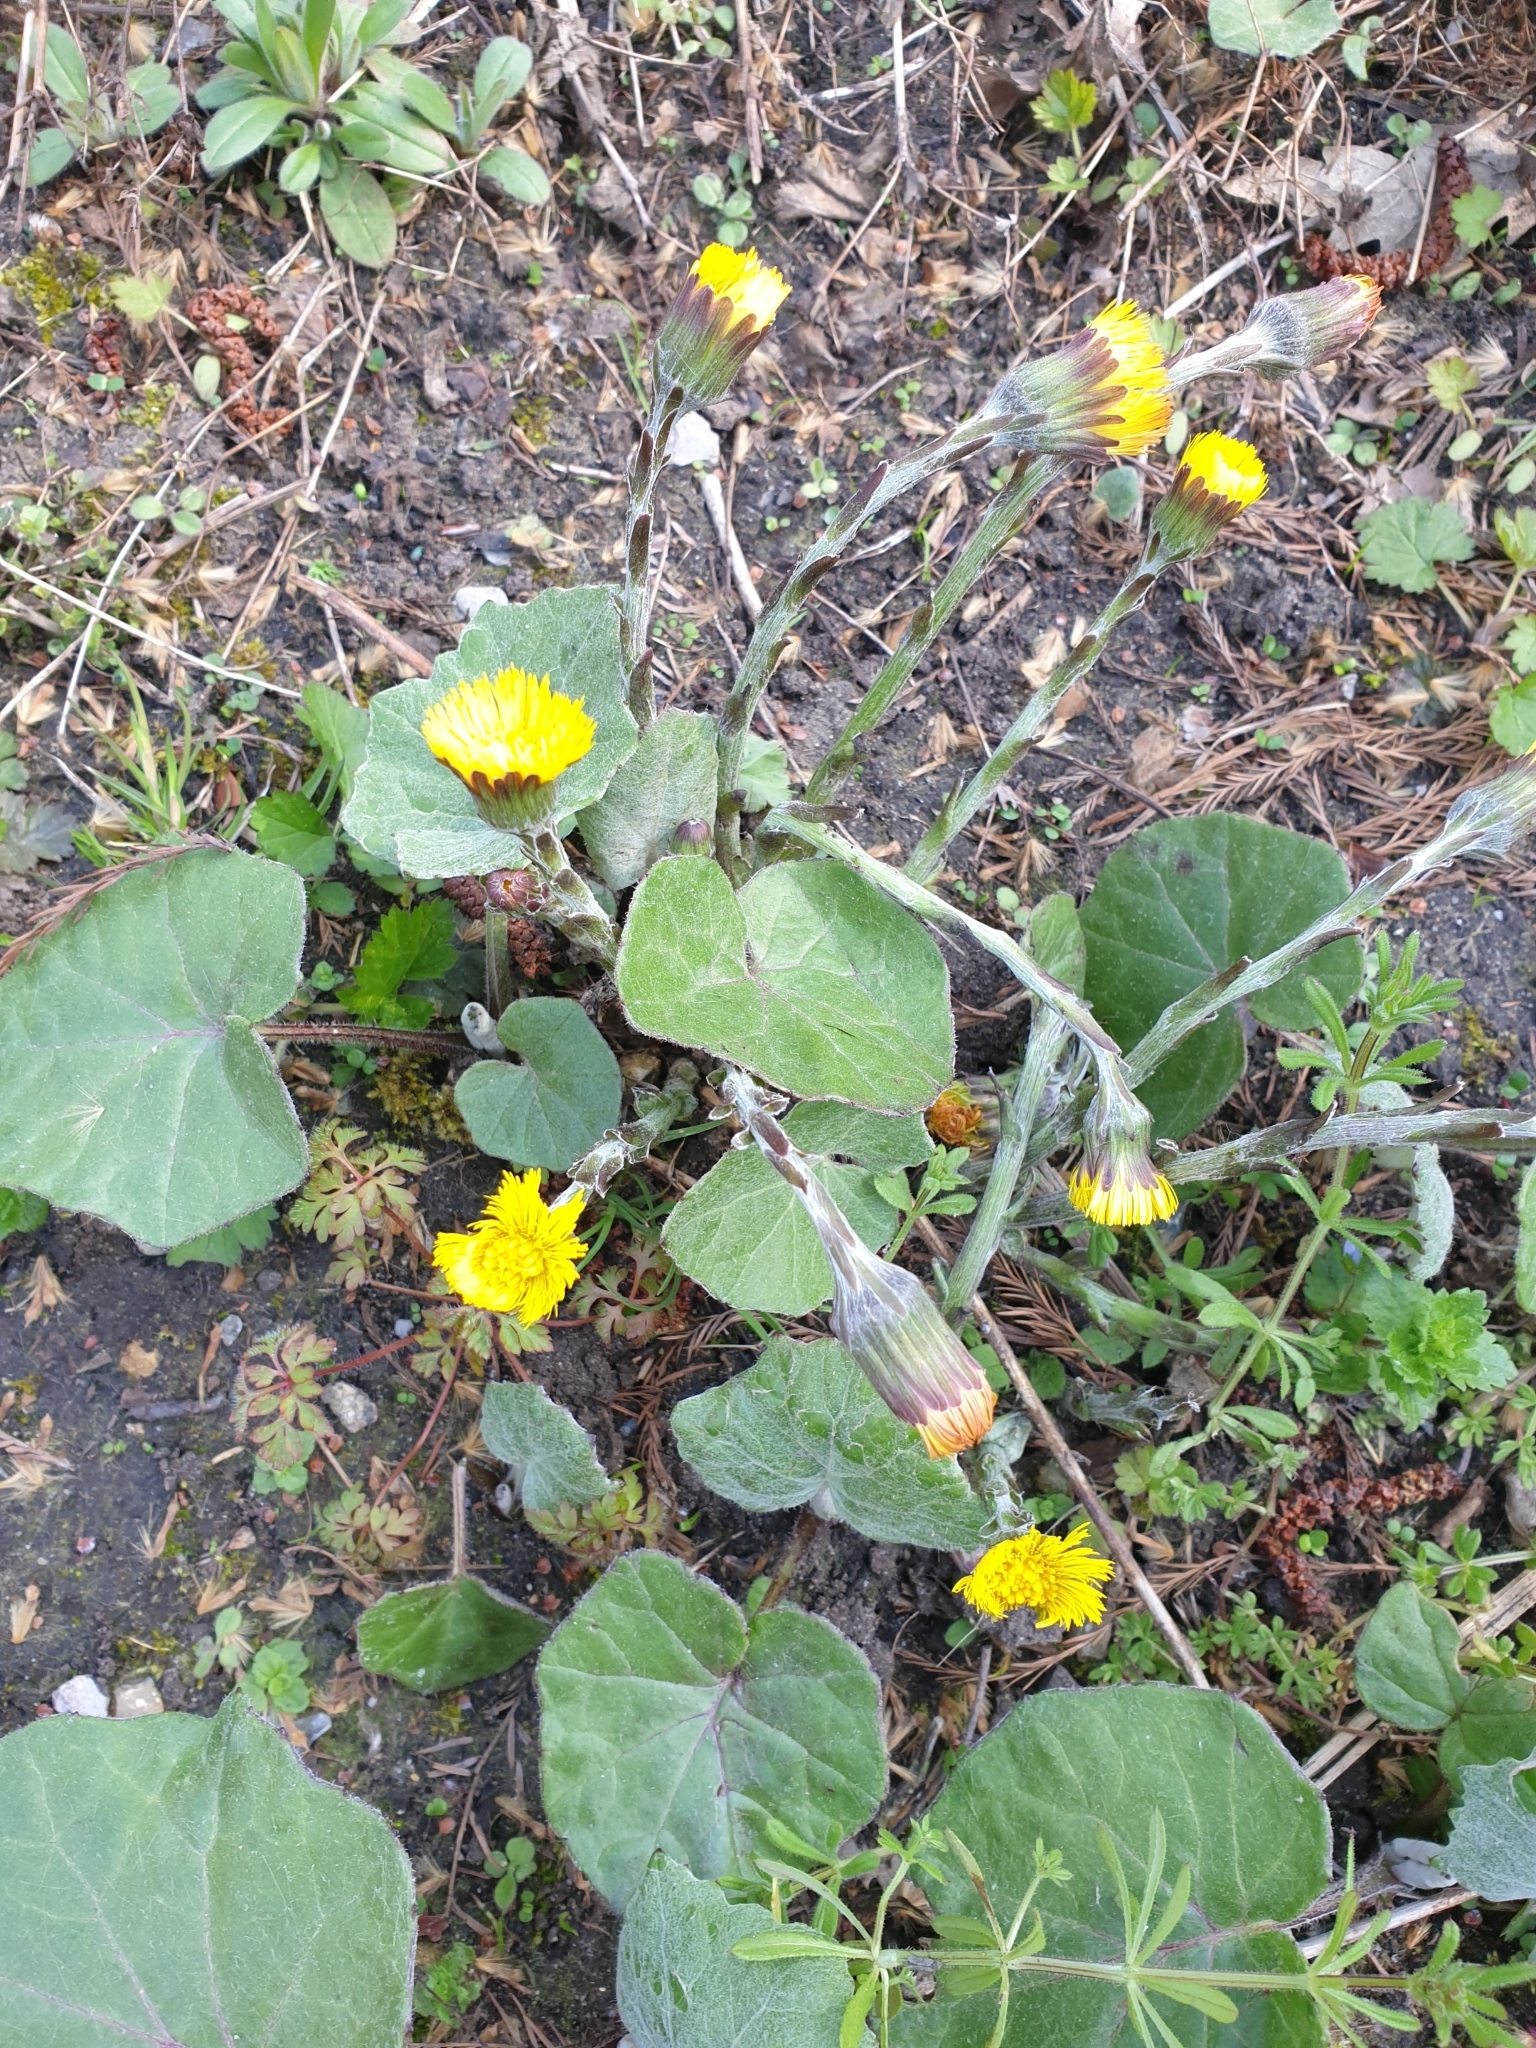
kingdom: Plantae
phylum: Tracheophyta
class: Magnoliopsida
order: Asterales
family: Asteraceae
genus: Tussilago
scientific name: Tussilago farfara
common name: Coltsfoot
